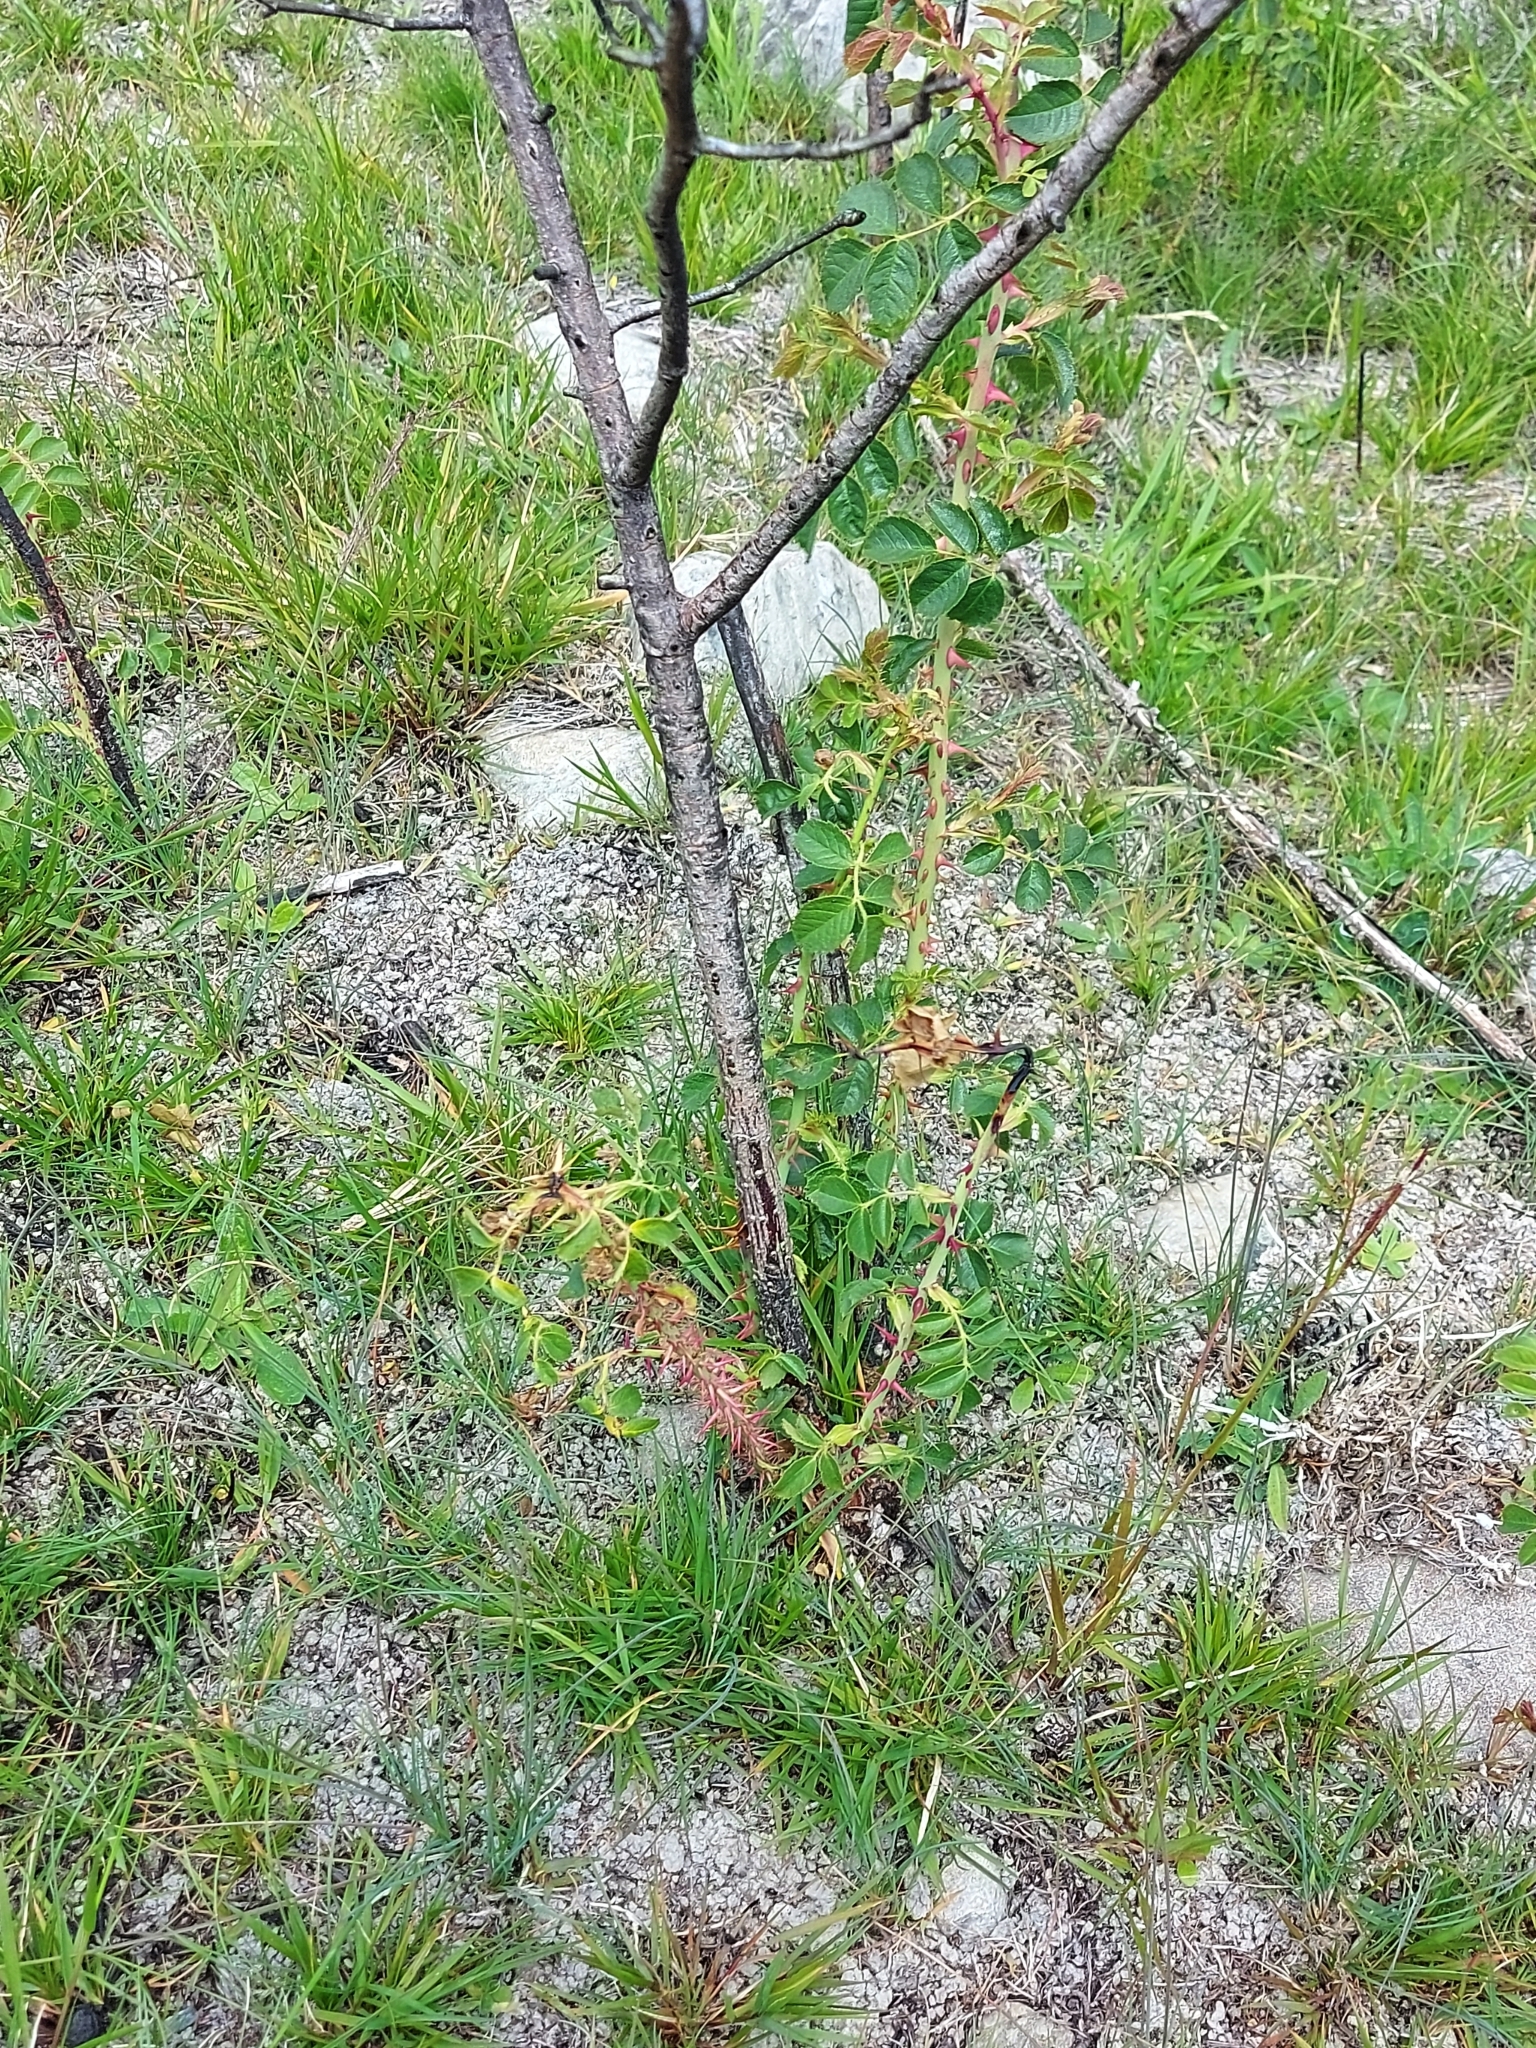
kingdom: Plantae
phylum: Tracheophyta
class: Magnoliopsida
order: Rosales
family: Rosaceae
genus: Rosa
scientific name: Rosa rubiginosa
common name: Sweet-briar
